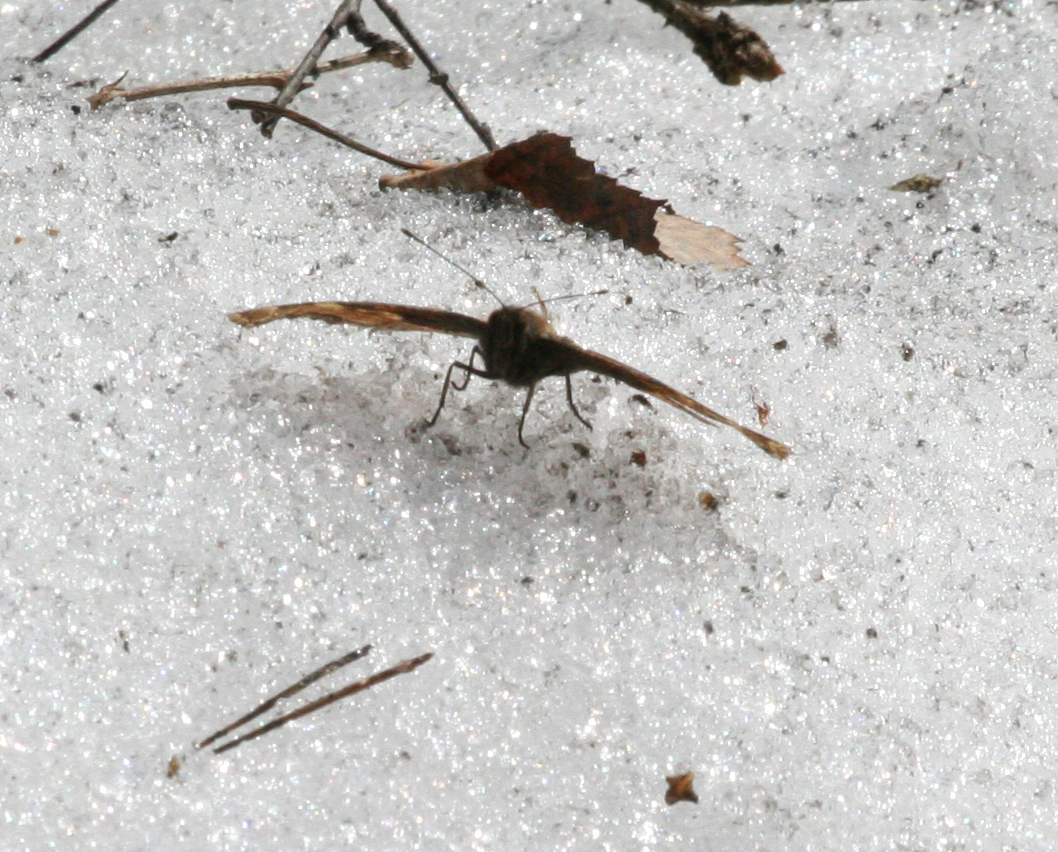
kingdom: Animalia
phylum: Arthropoda
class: Insecta
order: Lepidoptera
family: Nymphalidae
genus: Aglais
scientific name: Aglais urticae
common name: Small tortoiseshell
